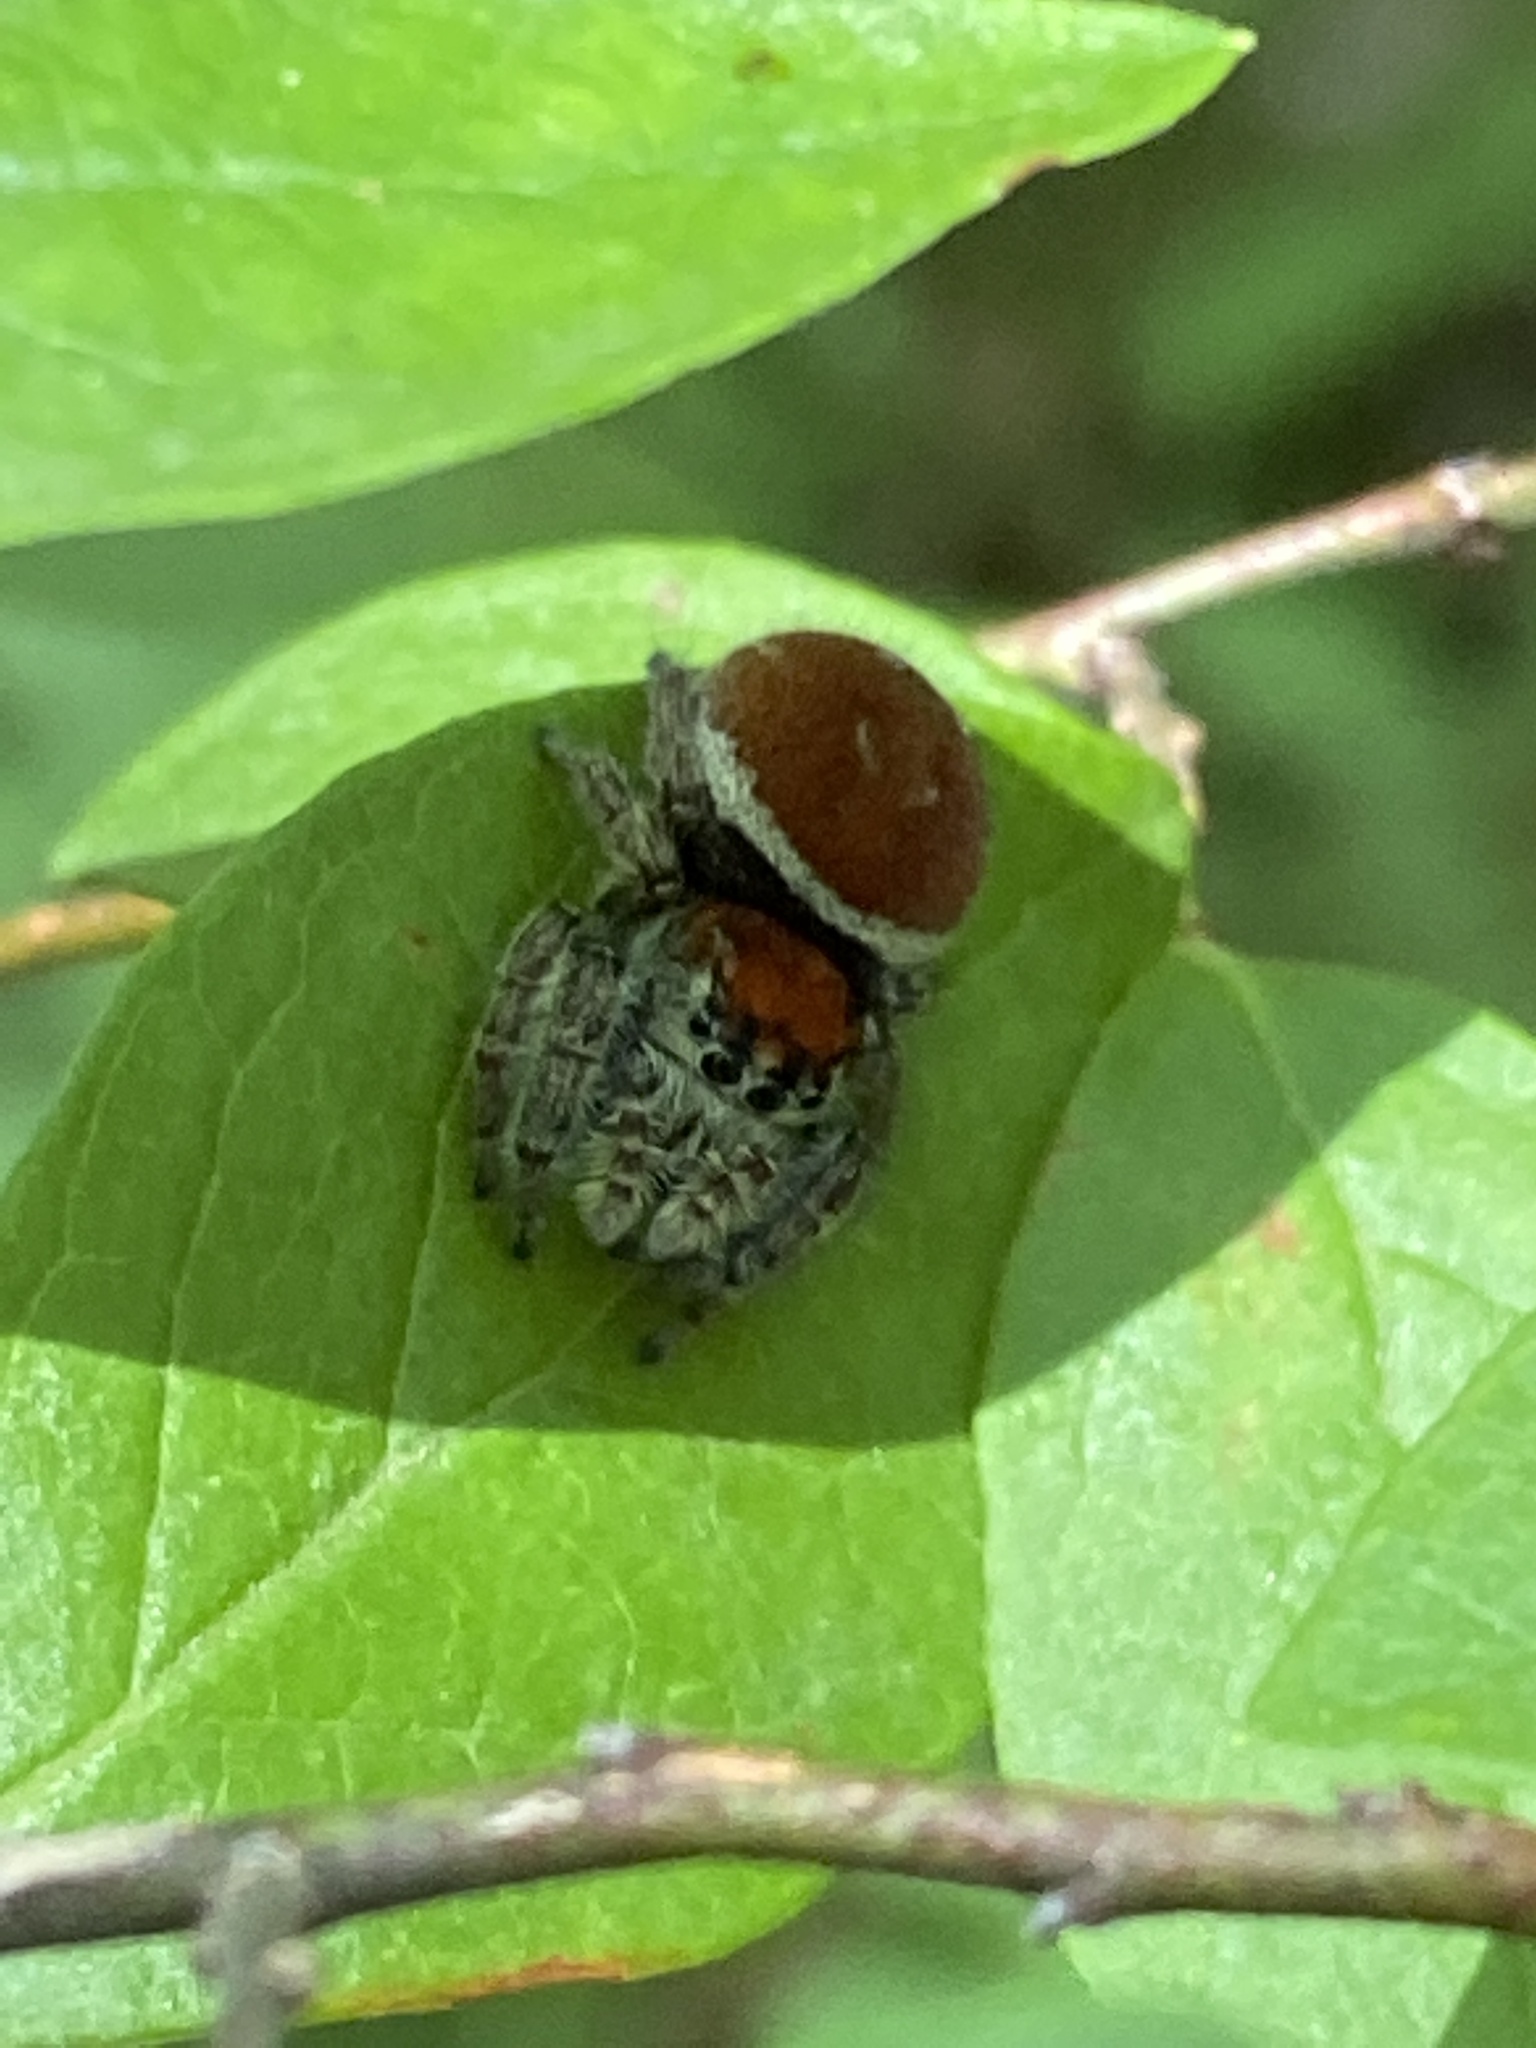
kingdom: Animalia
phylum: Arthropoda
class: Arachnida
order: Araneae
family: Salticidae
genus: Phidippus
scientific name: Phidippus whitmani
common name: Whitman's jumping spider
